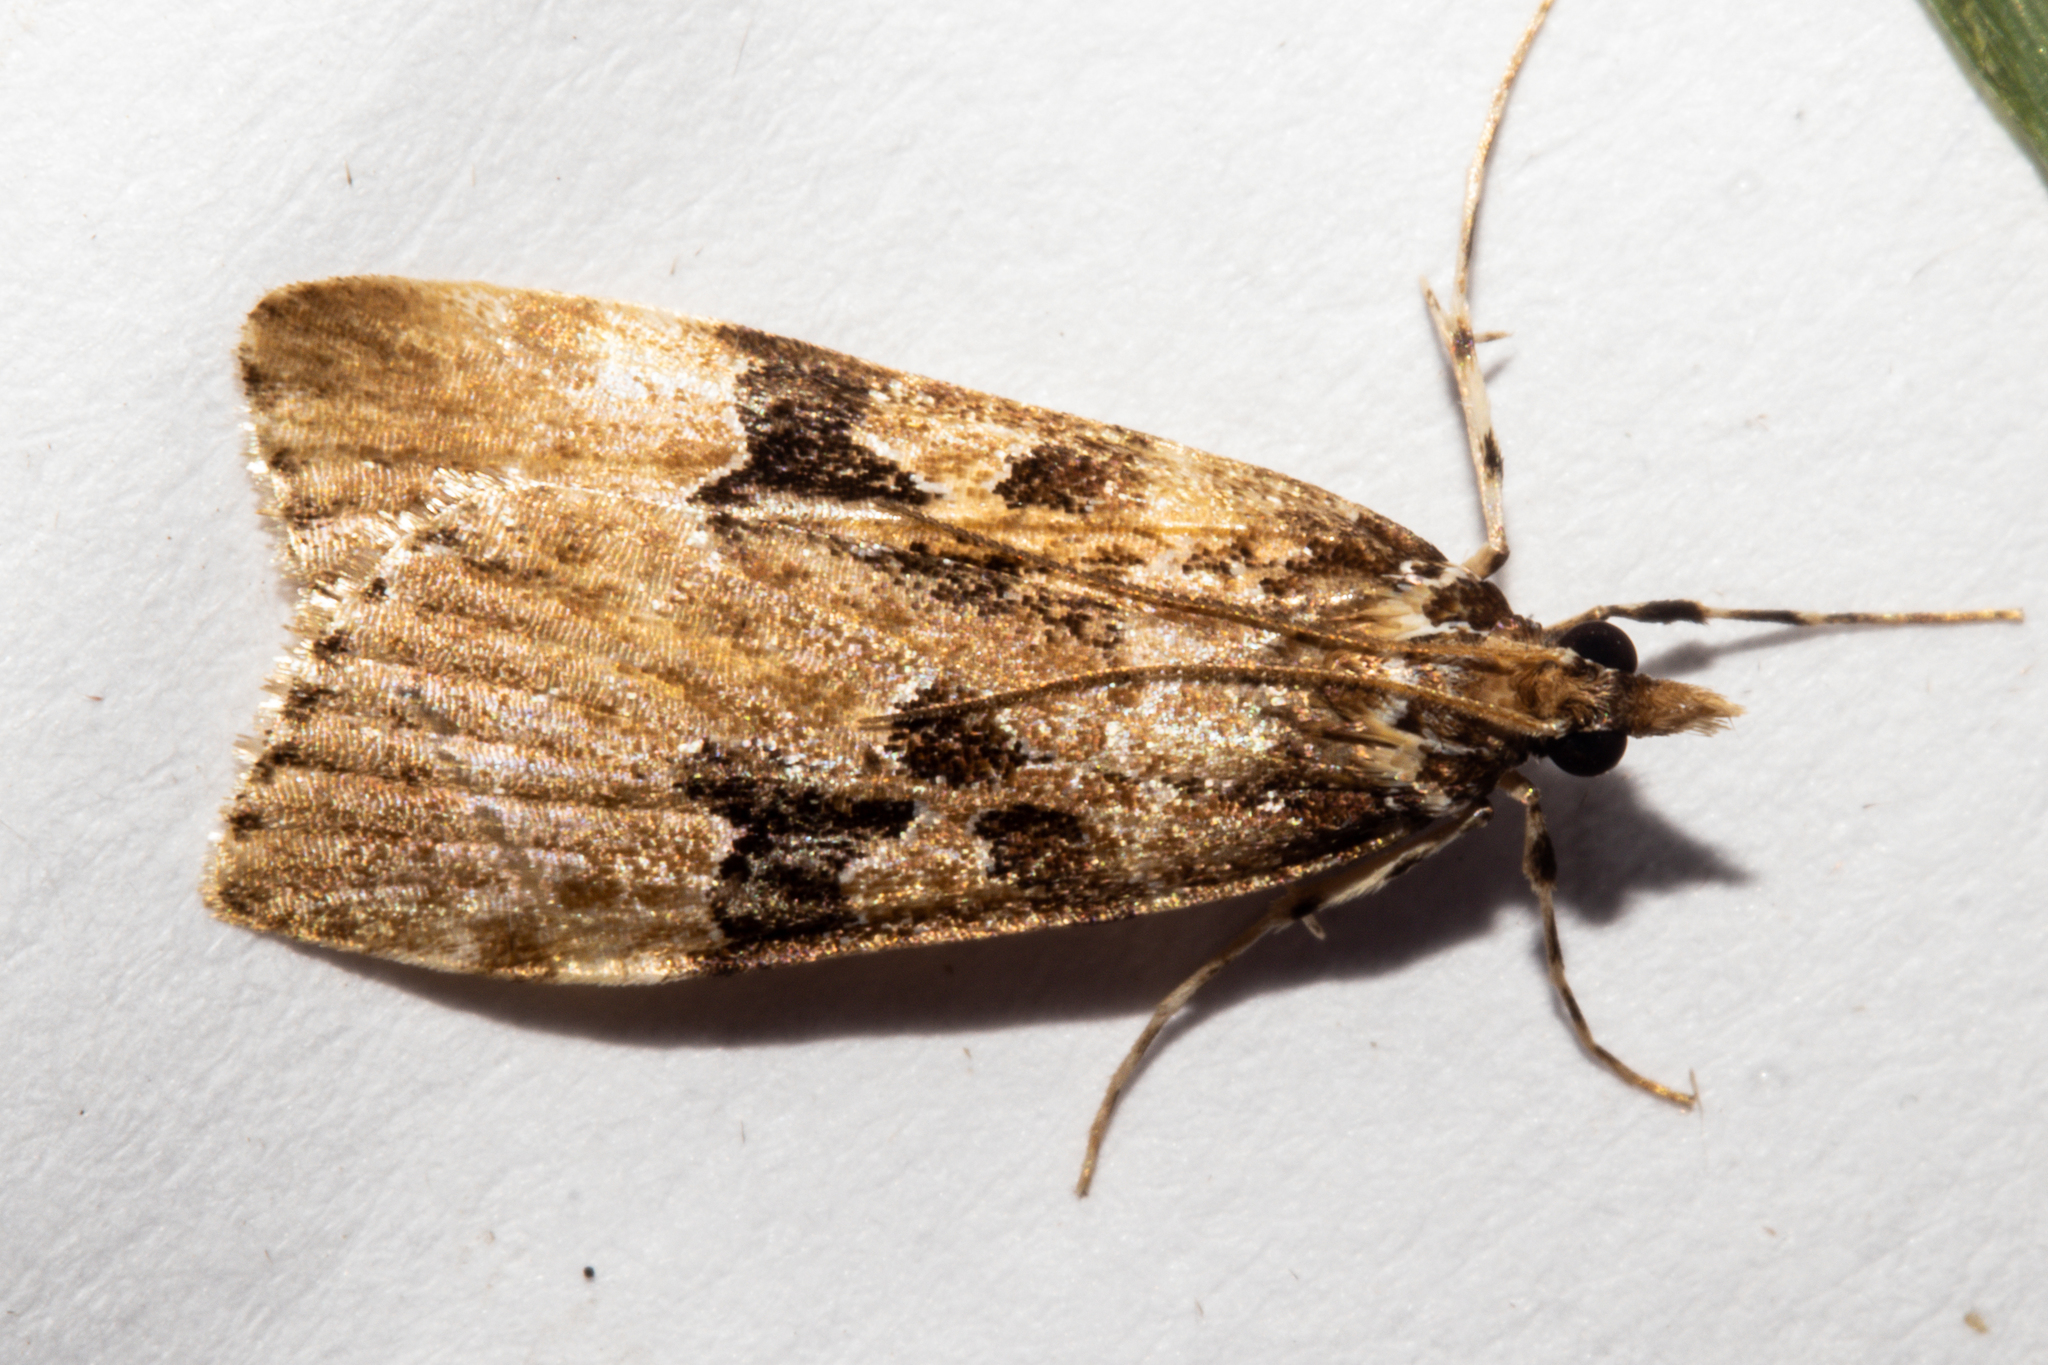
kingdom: Animalia
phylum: Arthropoda
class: Insecta
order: Lepidoptera
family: Crambidae
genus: Scoparia
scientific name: Scoparia ustimacula
